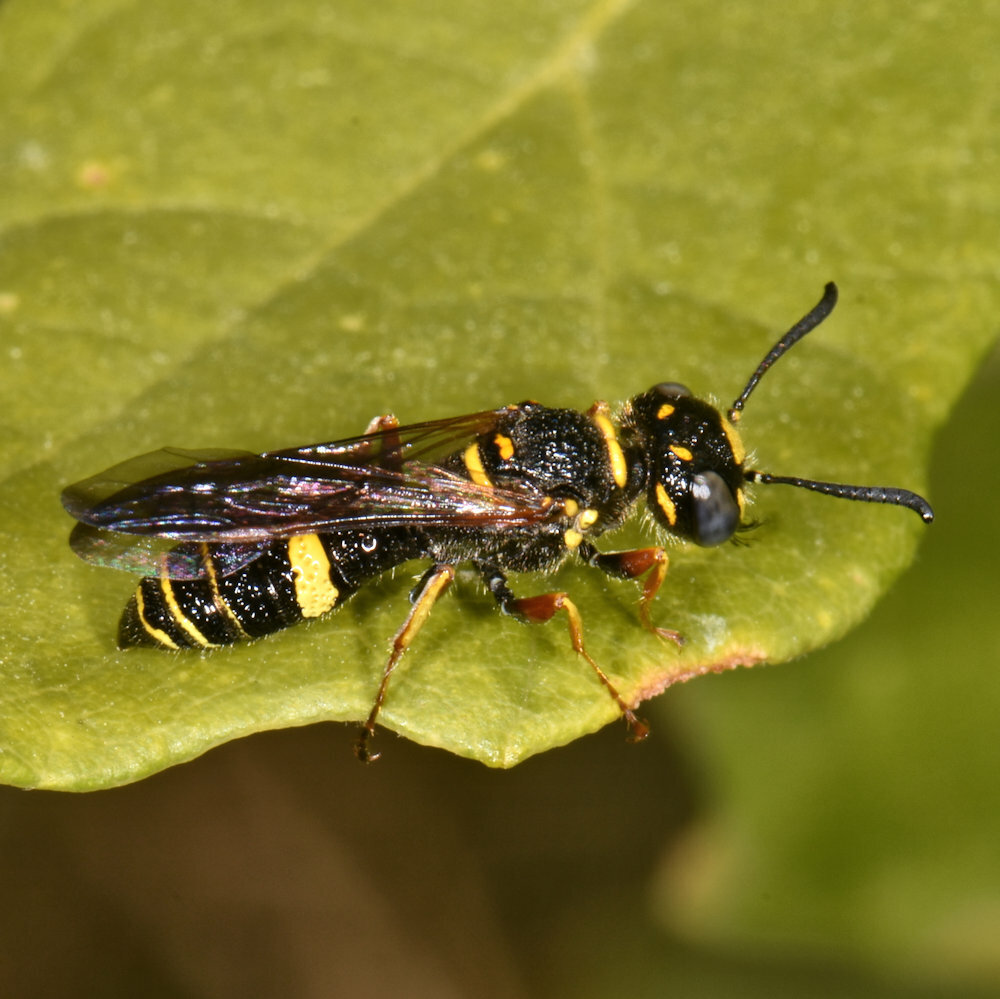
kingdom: Animalia
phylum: Arthropoda
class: Insecta
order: Hymenoptera
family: Crabronidae
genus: Philanthus
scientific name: Philanthus gibbosus
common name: Humped beewolf
